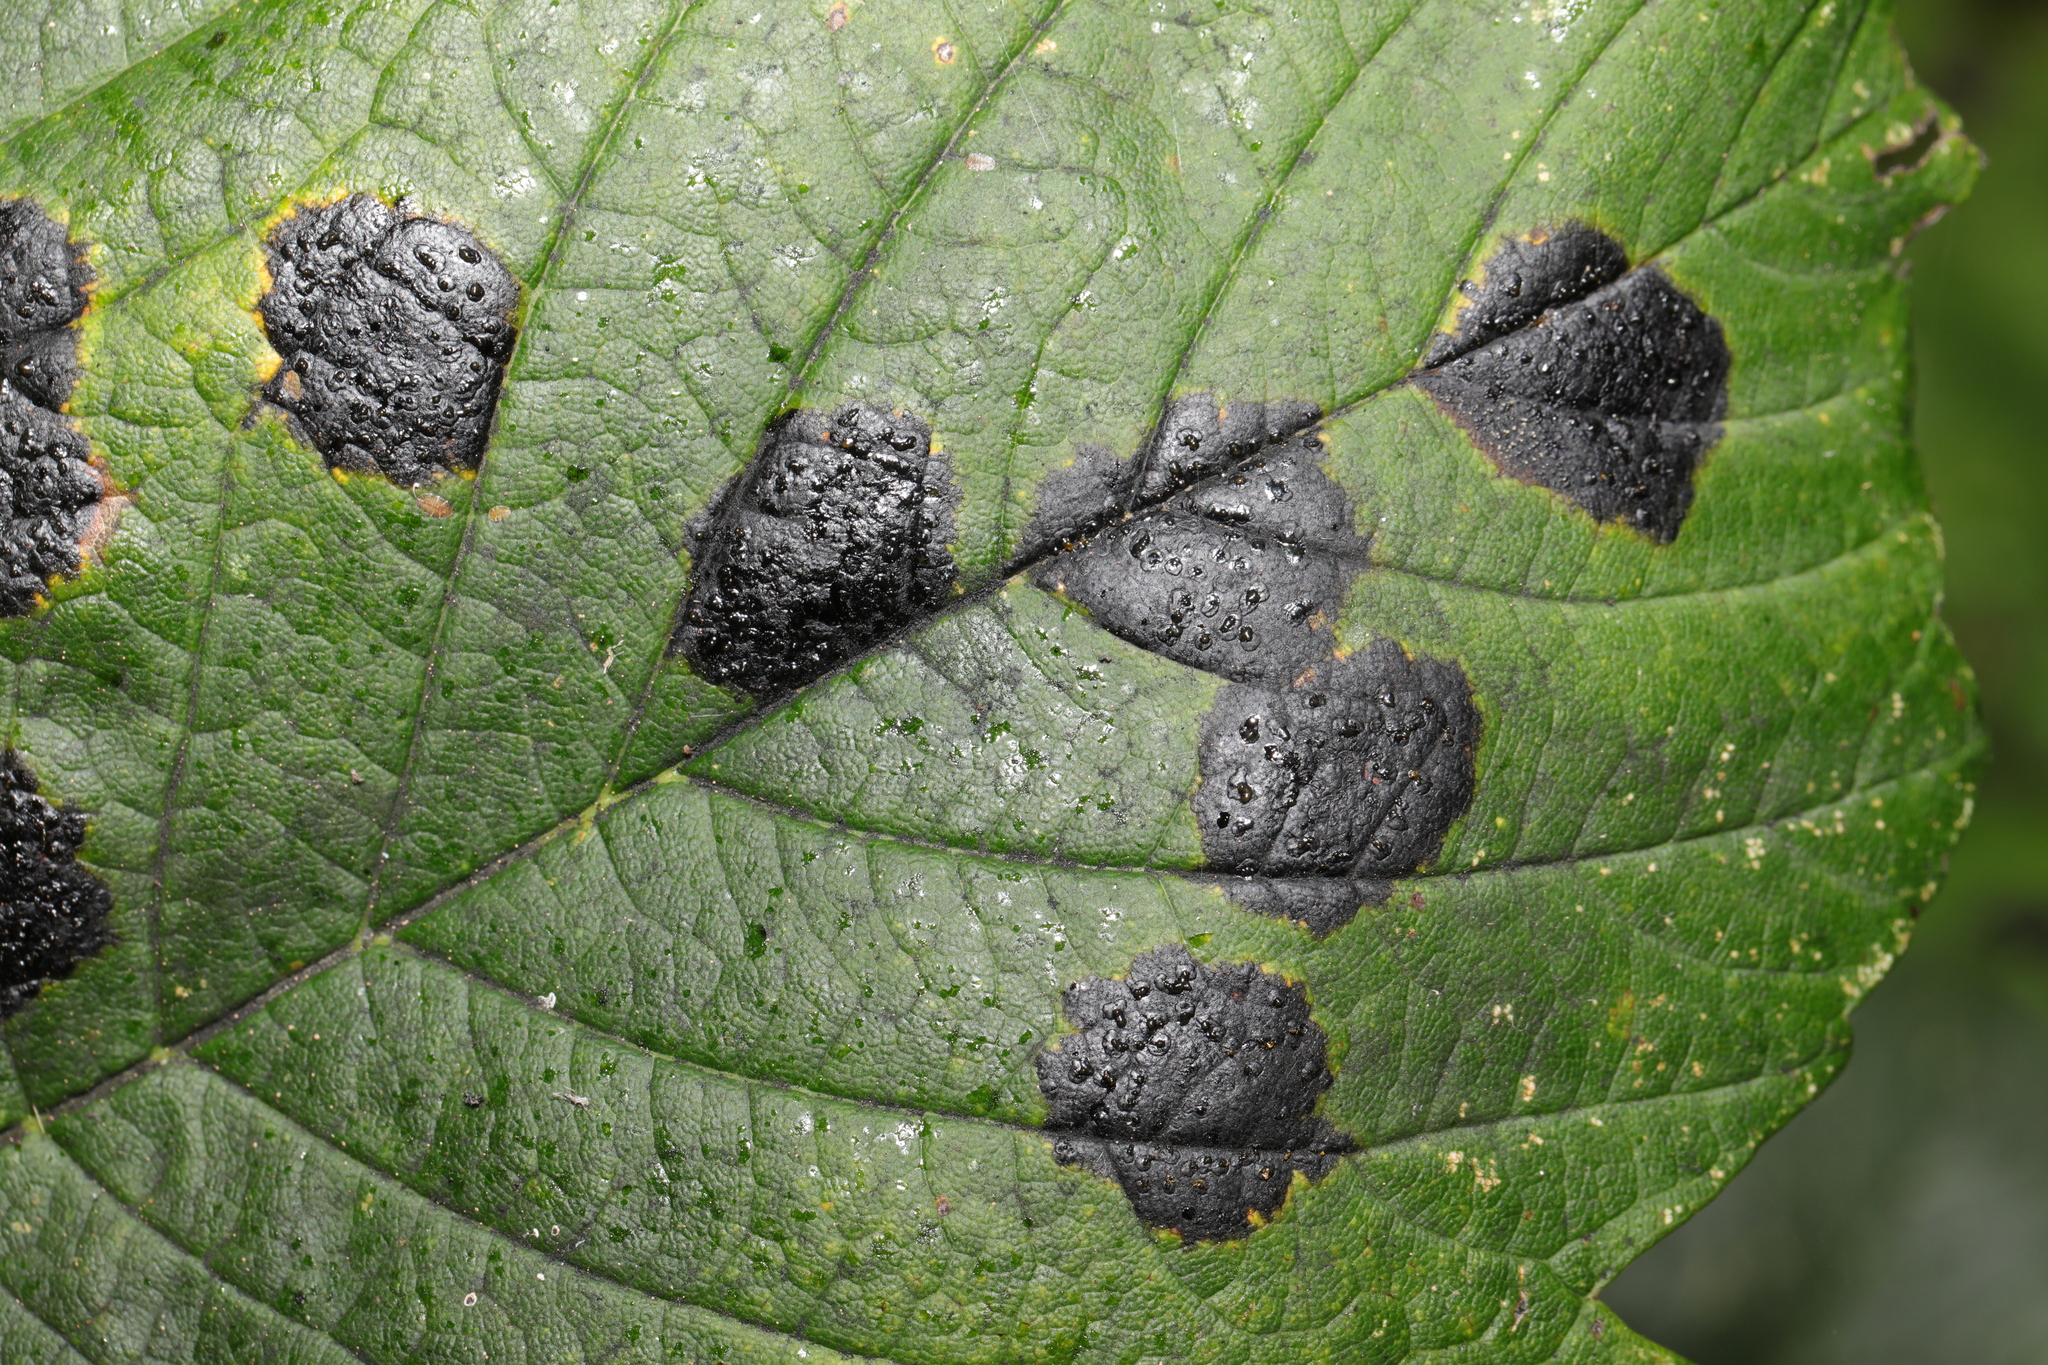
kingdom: Fungi
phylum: Ascomycota
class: Leotiomycetes
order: Rhytismatales
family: Rhytismataceae
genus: Rhytisma
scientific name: Rhytisma acerinum
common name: European tar spot
